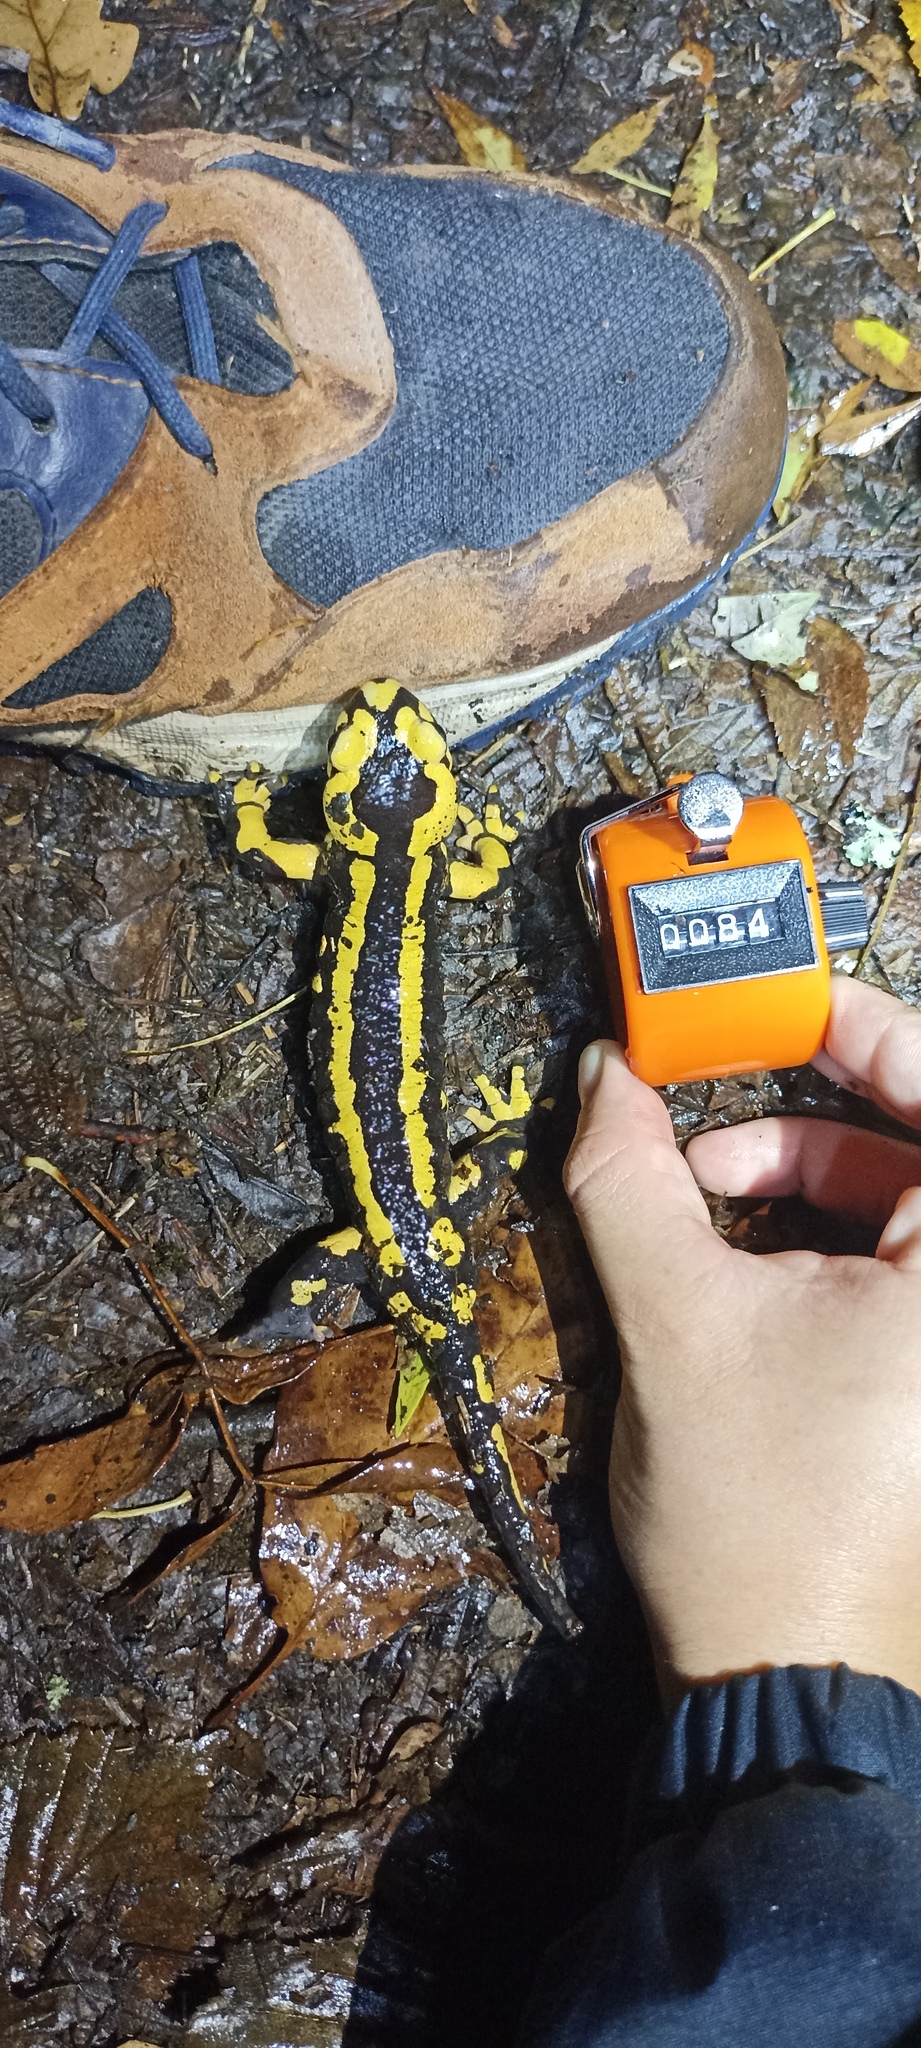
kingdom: Animalia
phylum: Chordata
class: Amphibia
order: Caudata
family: Salamandridae
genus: Salamandra
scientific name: Salamandra salamandra
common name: Fire salamander
